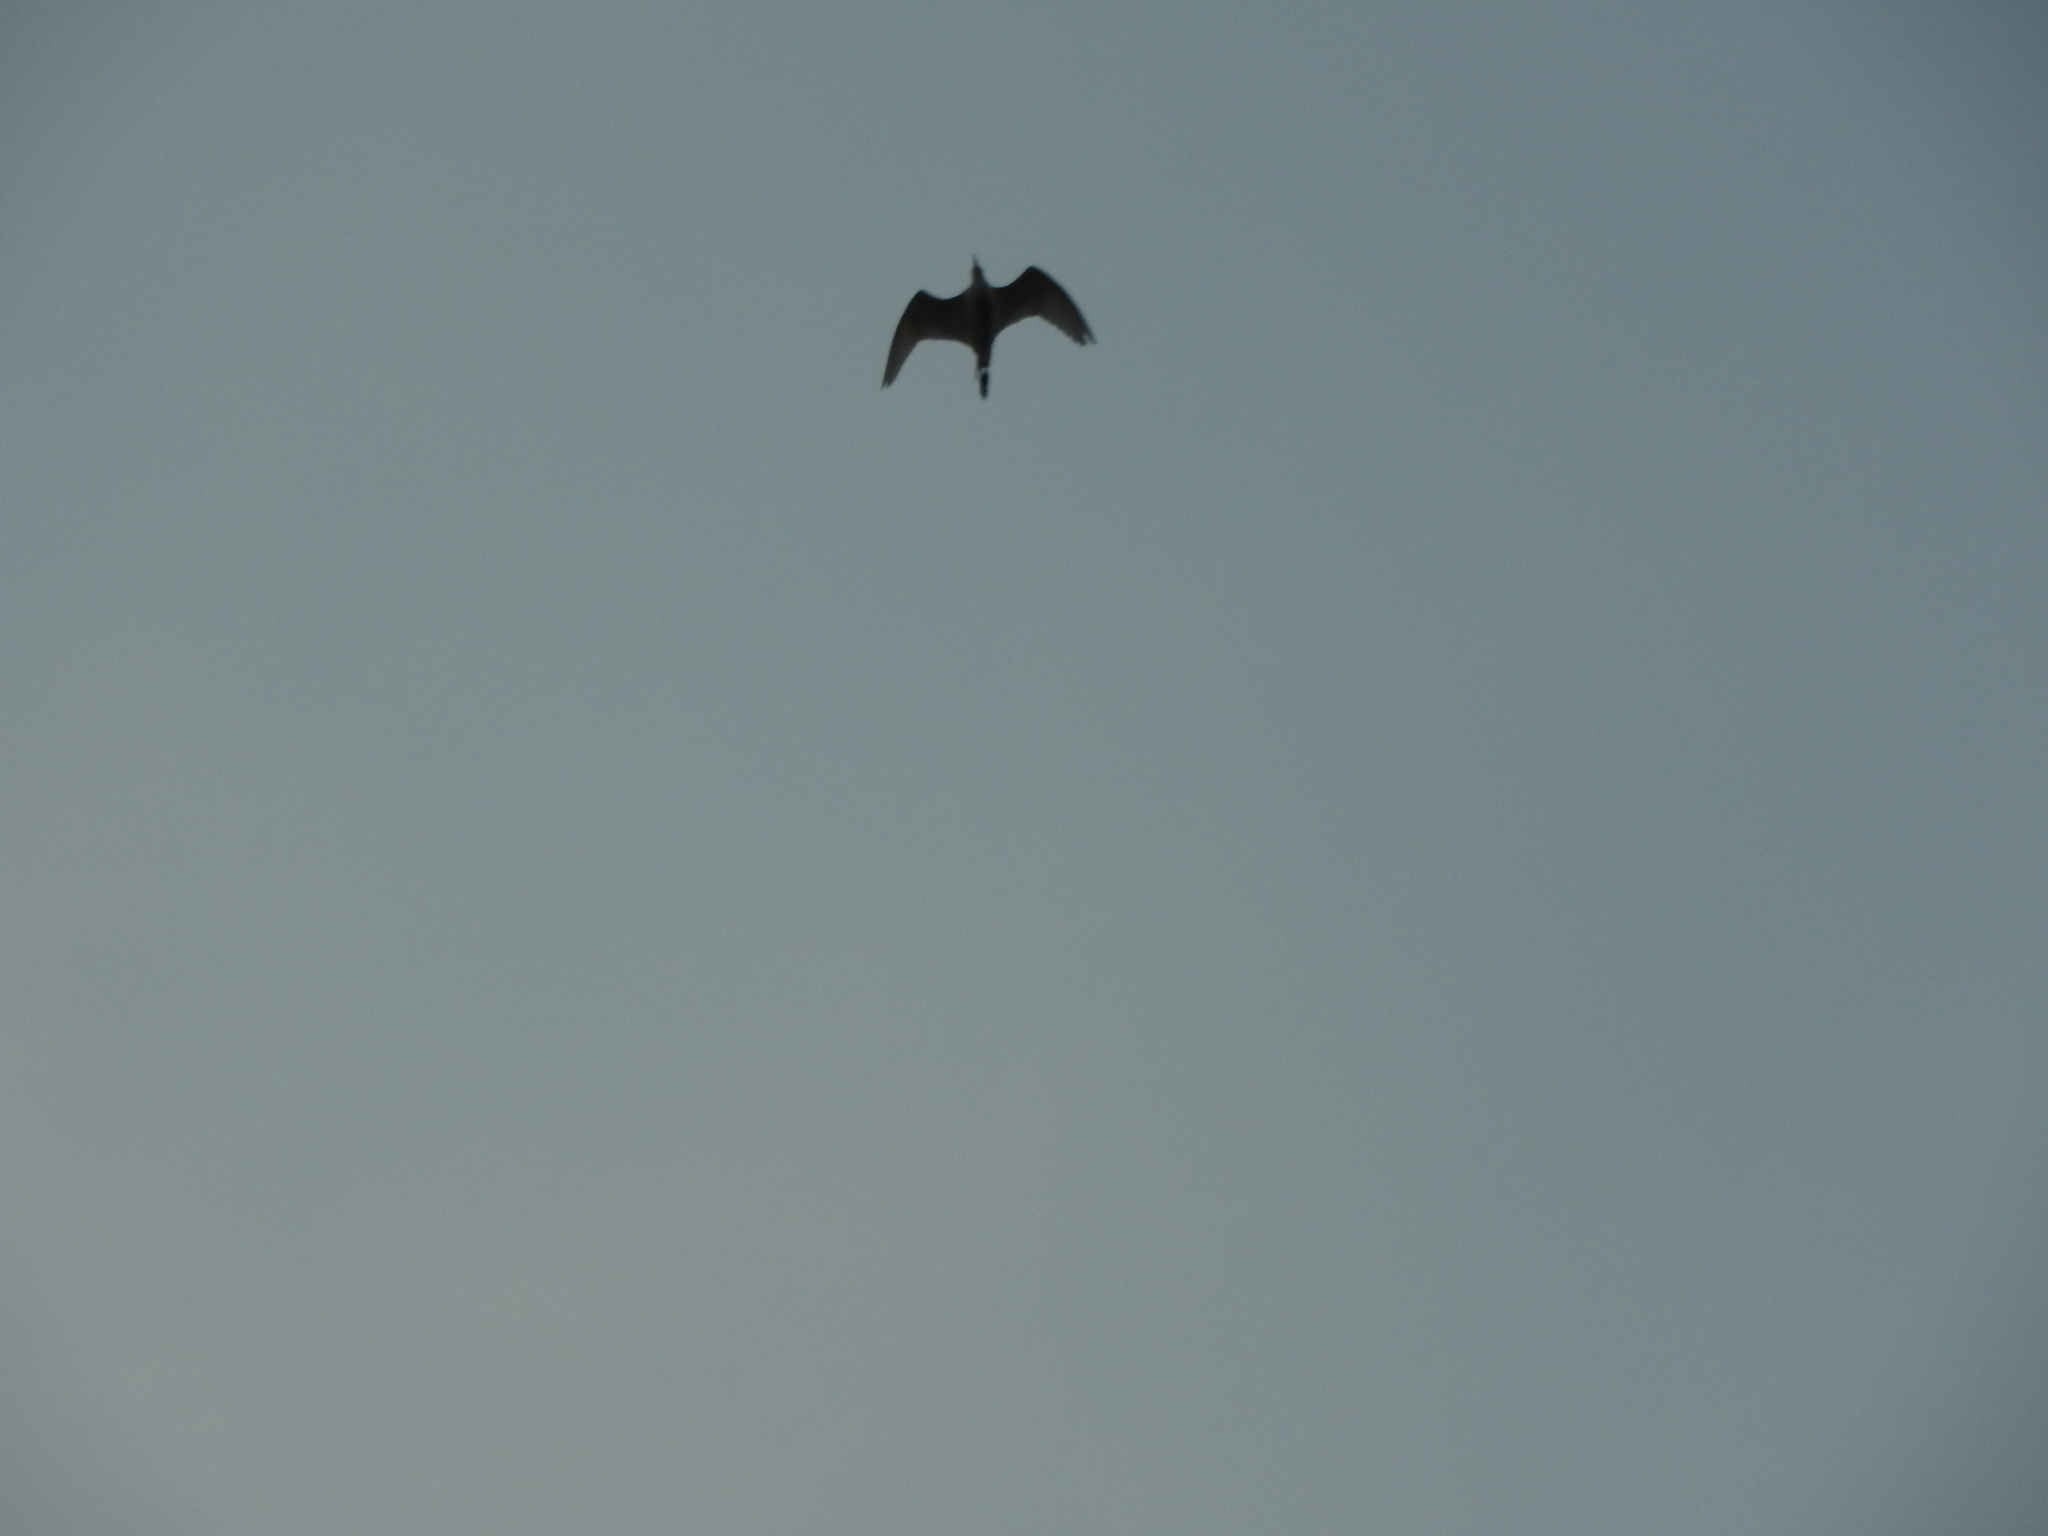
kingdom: Animalia
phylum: Chordata
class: Aves
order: Pelecaniformes
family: Ardeidae
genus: Bubulcus
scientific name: Bubulcus ibis
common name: Cattle egret
